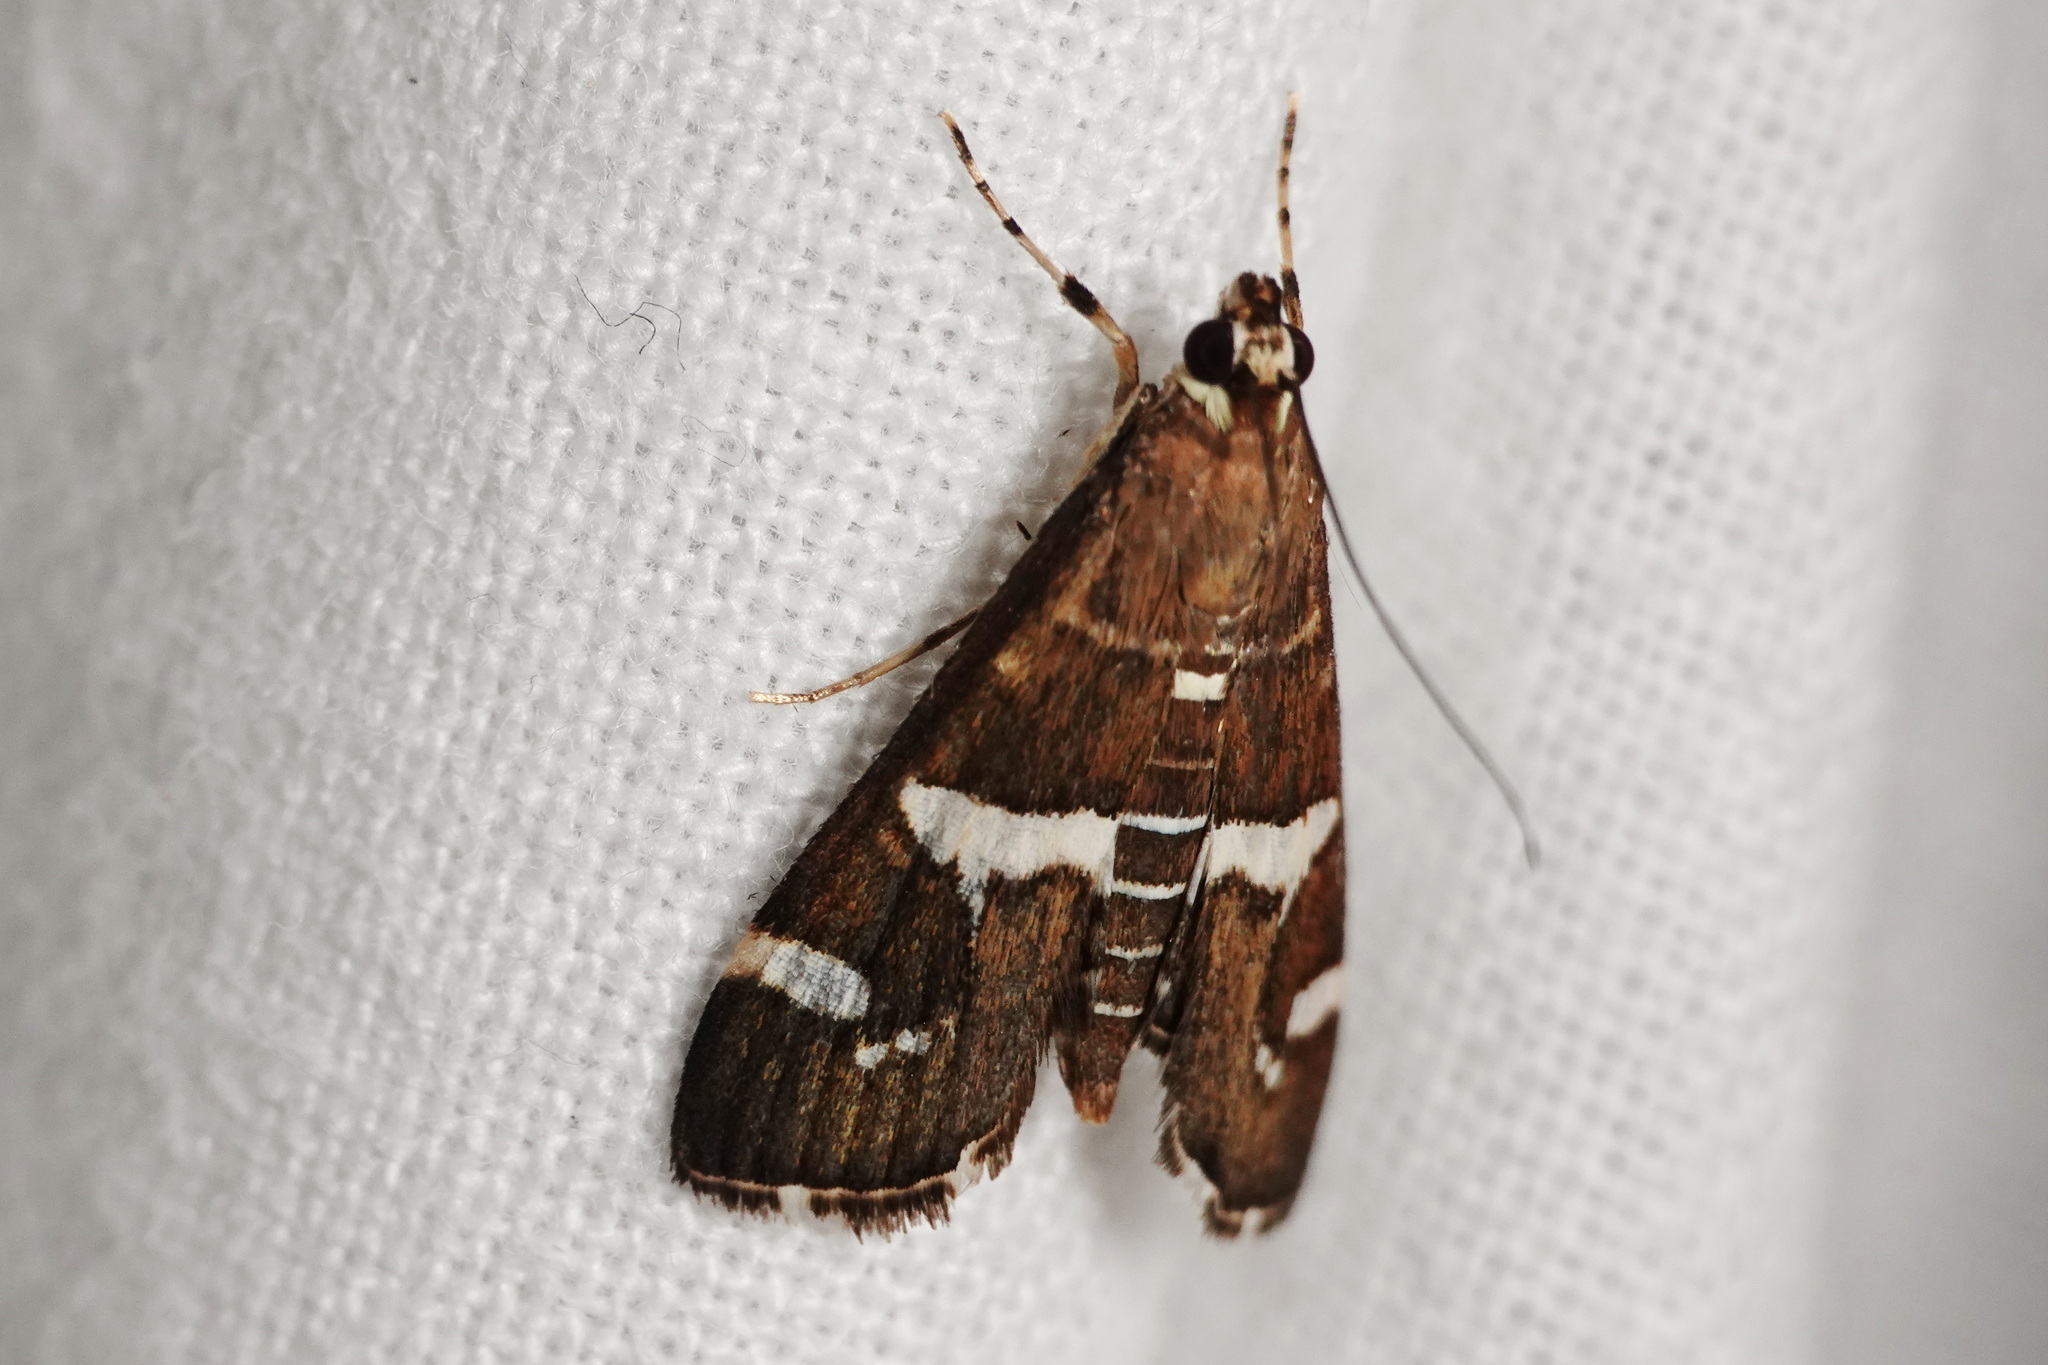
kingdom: Animalia
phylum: Arthropoda
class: Insecta
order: Lepidoptera
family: Crambidae
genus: Spoladea
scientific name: Spoladea recurvalis
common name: Beet webworm moth
